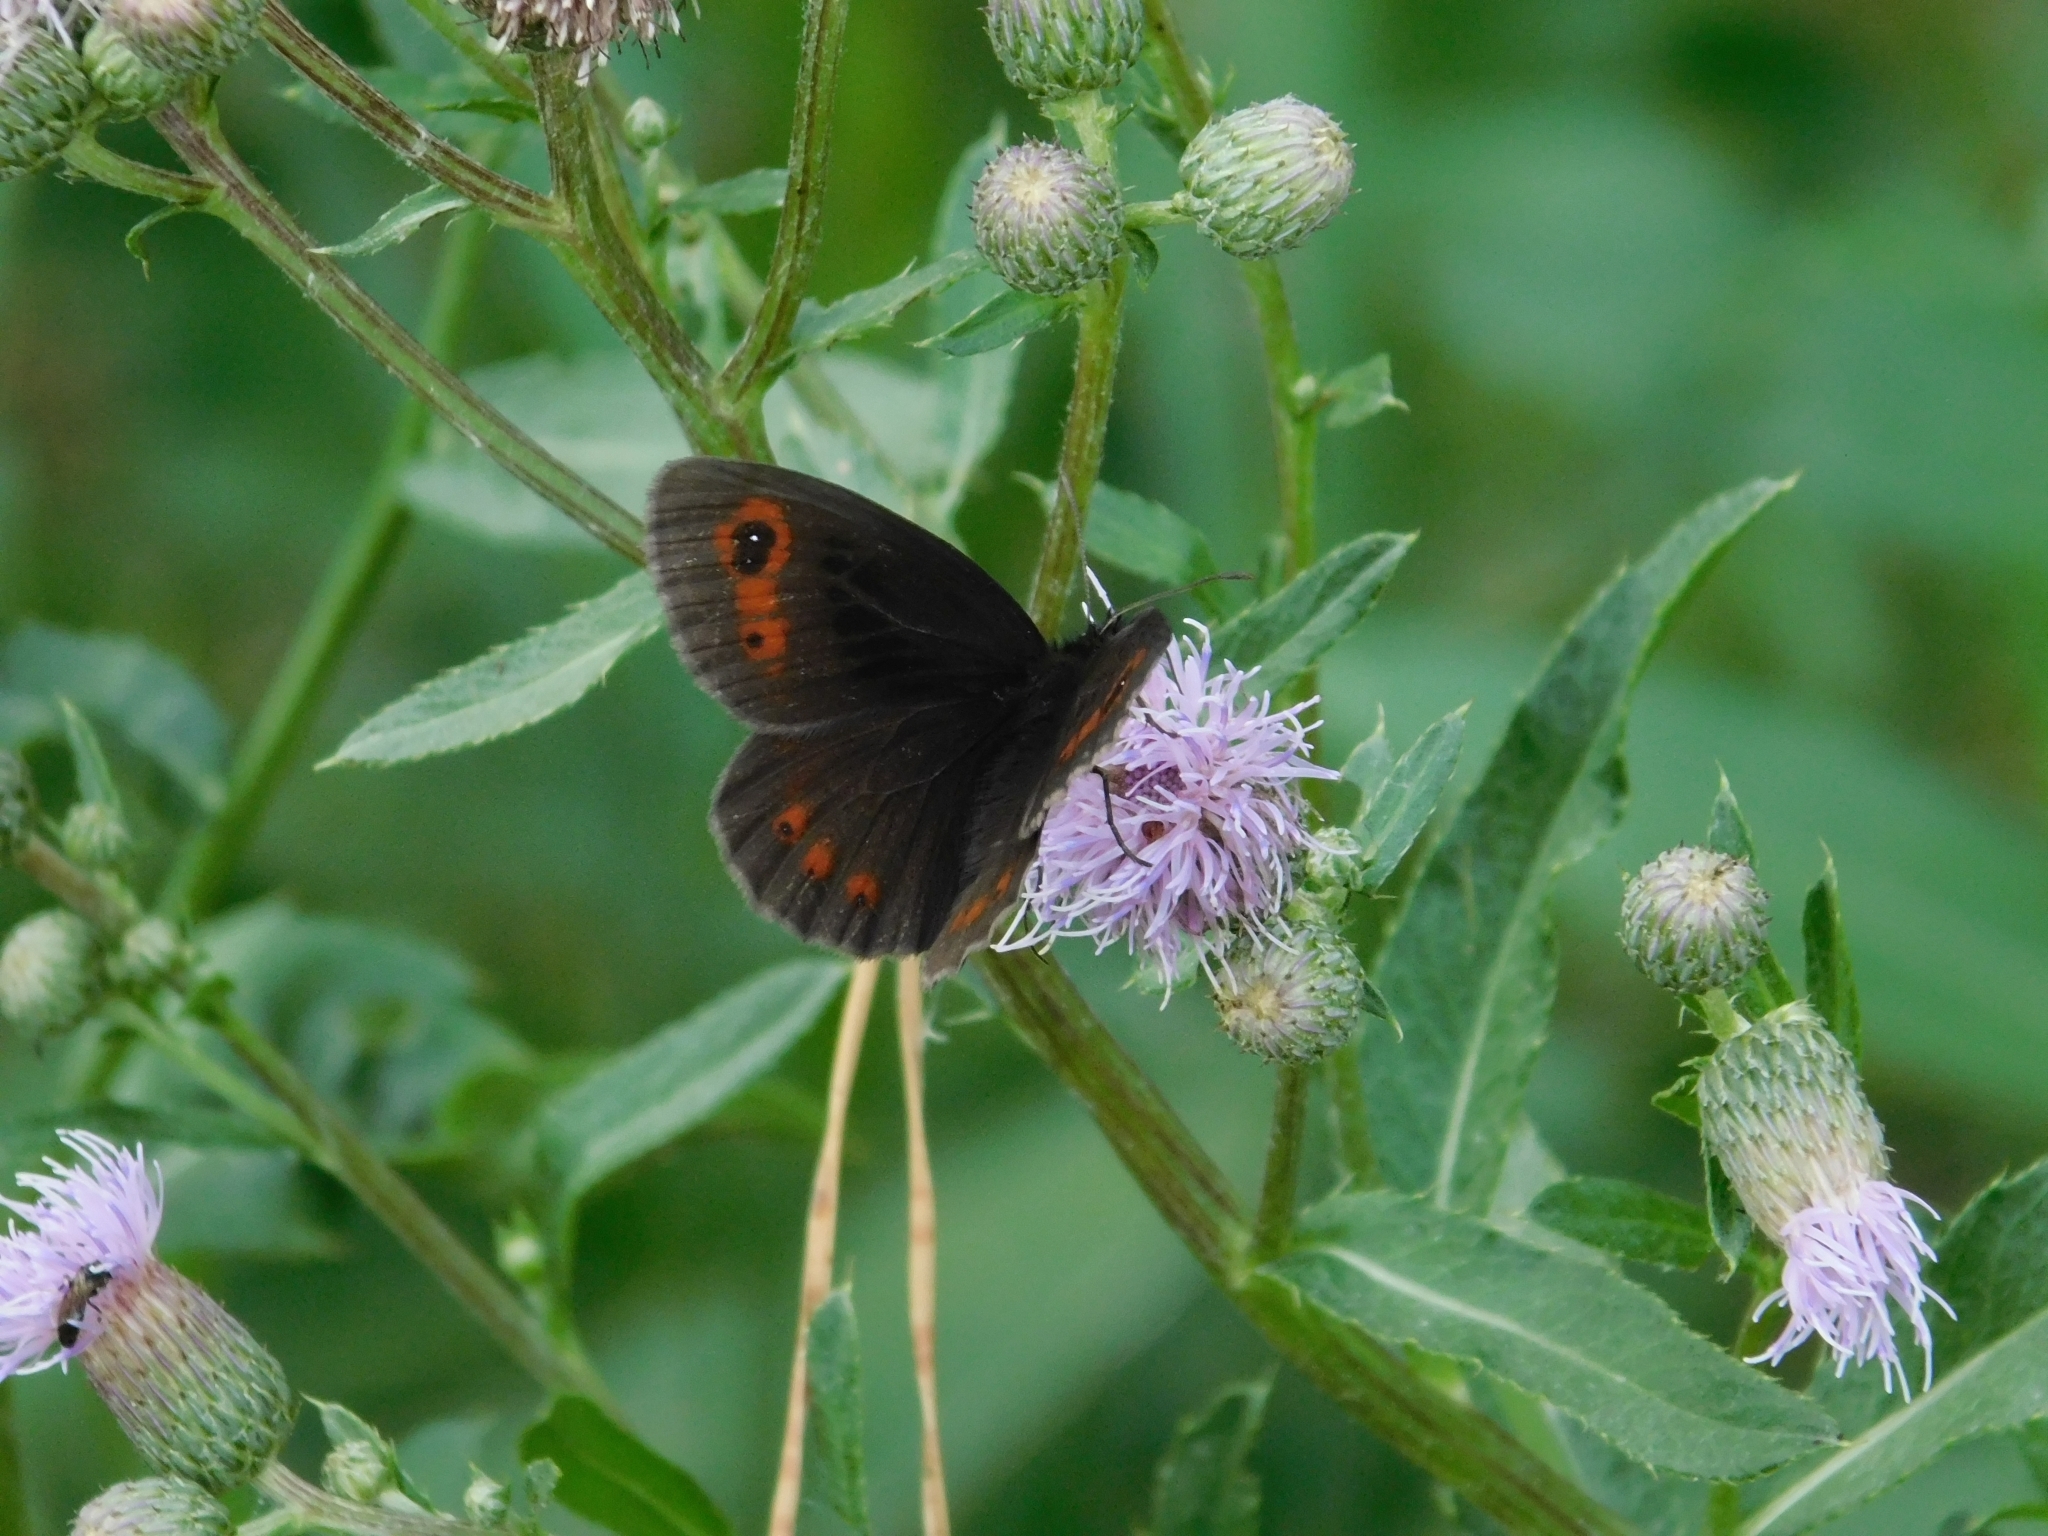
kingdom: Animalia
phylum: Arthropoda
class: Insecta
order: Lepidoptera
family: Nymphalidae
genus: Erebia
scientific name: Erebia aethiops
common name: Scotch argus
